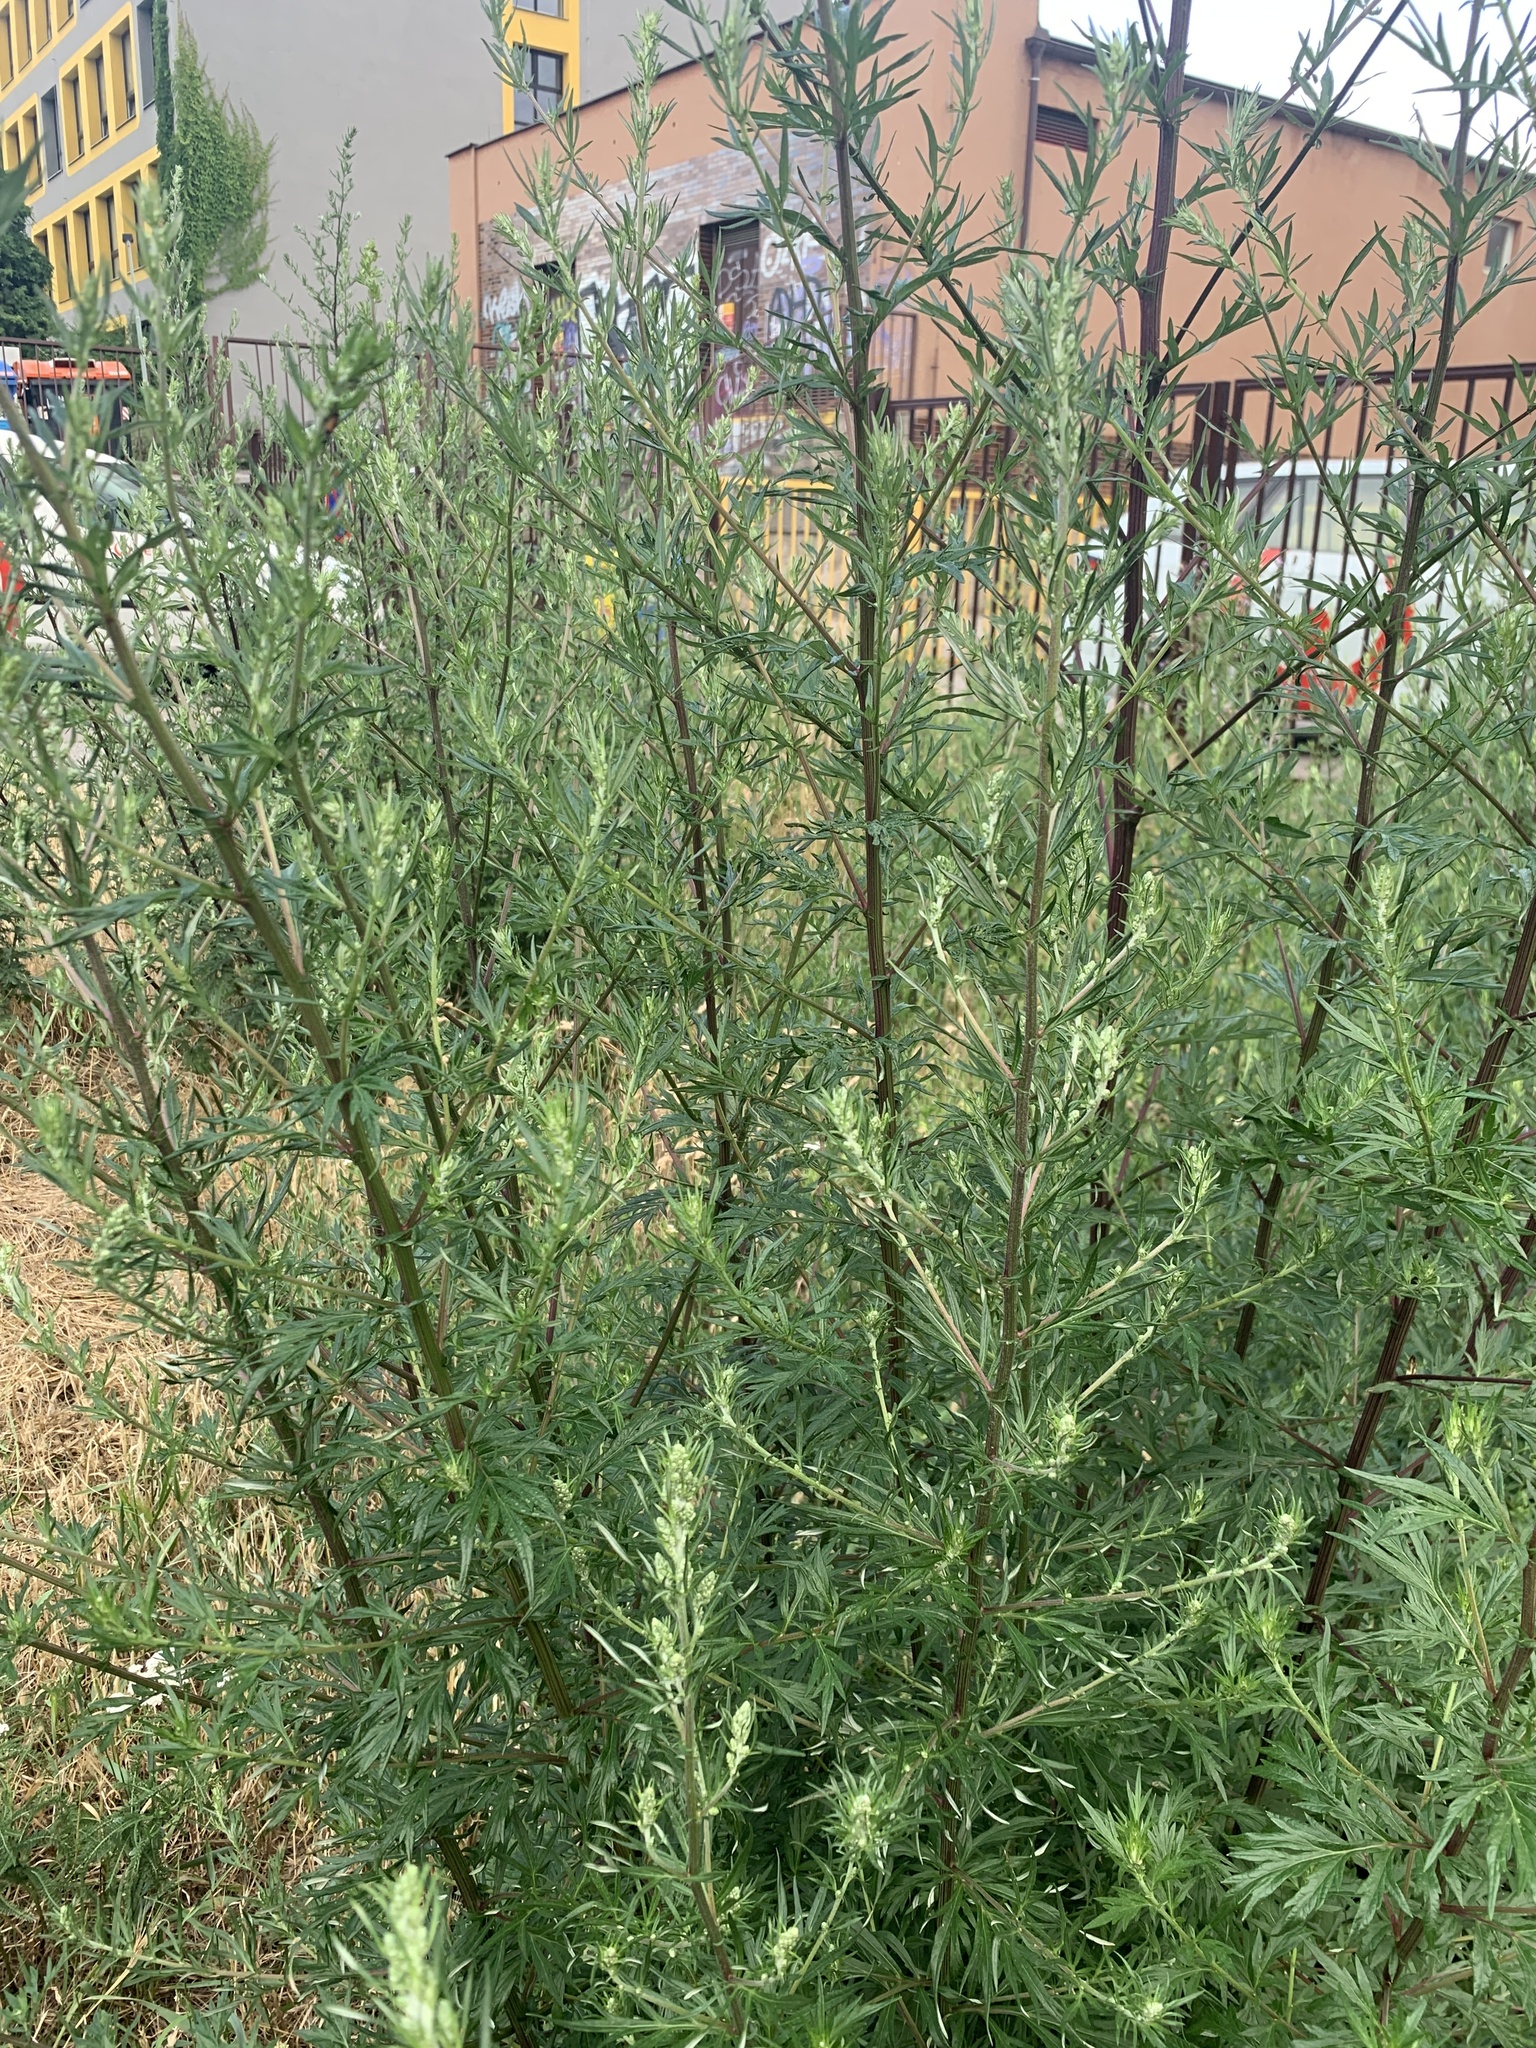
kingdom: Plantae
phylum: Tracheophyta
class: Magnoliopsida
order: Asterales
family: Asteraceae
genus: Artemisia
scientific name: Artemisia vulgaris
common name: Mugwort
